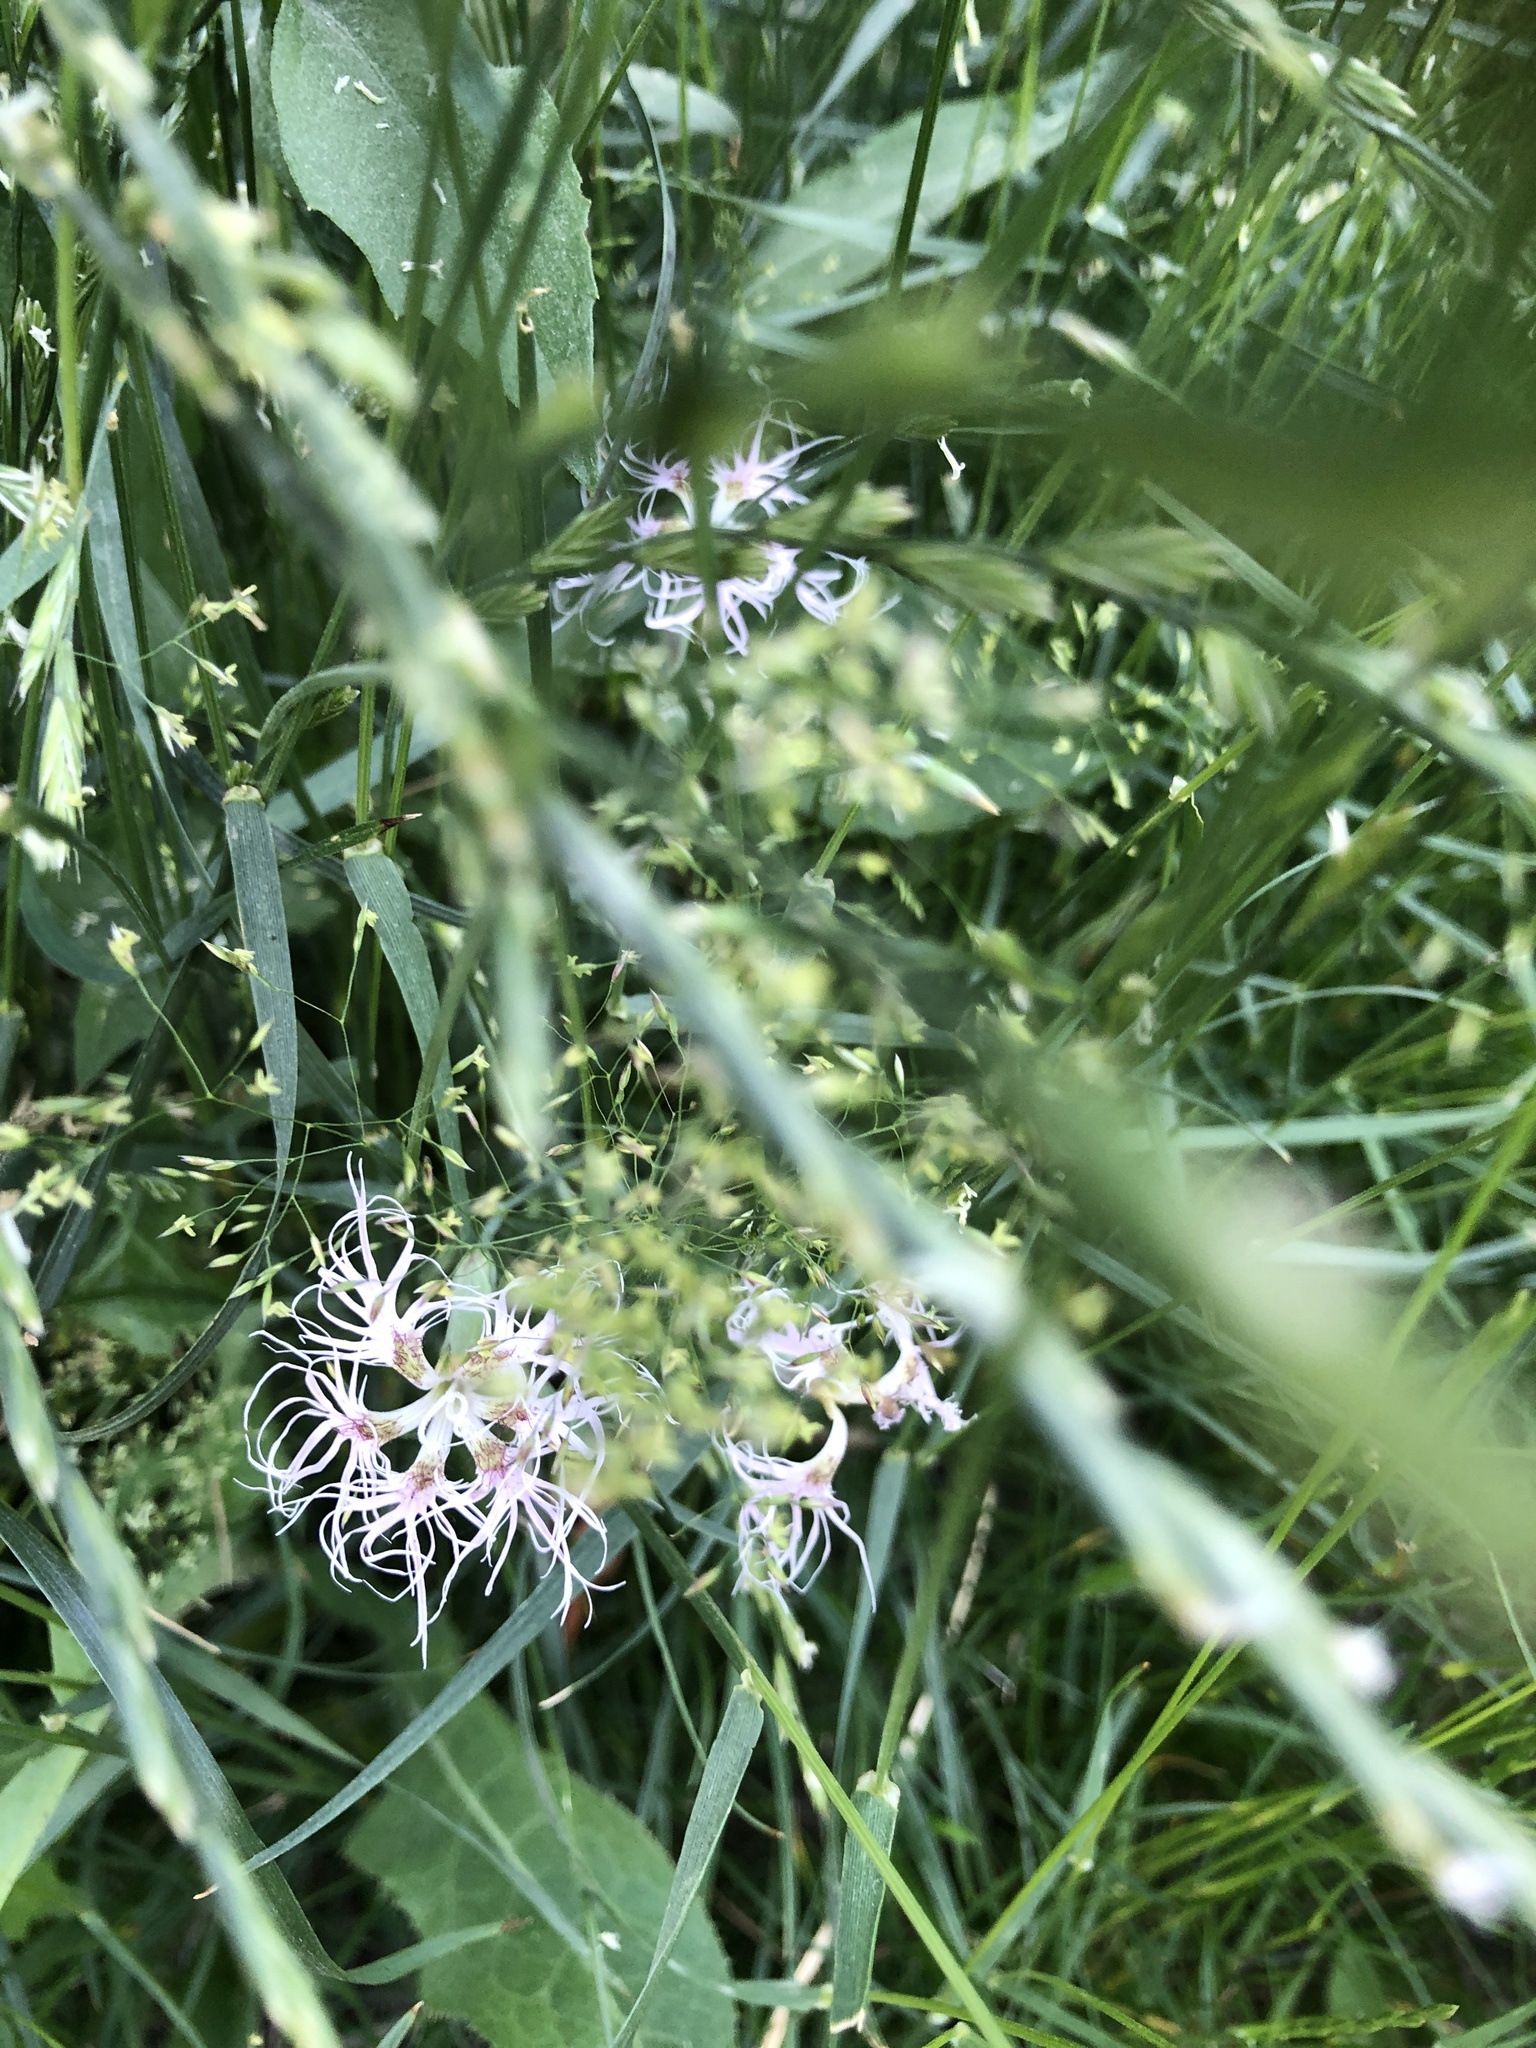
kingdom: Plantae
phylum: Tracheophyta
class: Magnoliopsida
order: Caryophyllales
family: Caryophyllaceae
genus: Dianthus
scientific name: Dianthus superbus
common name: Fringed pink
